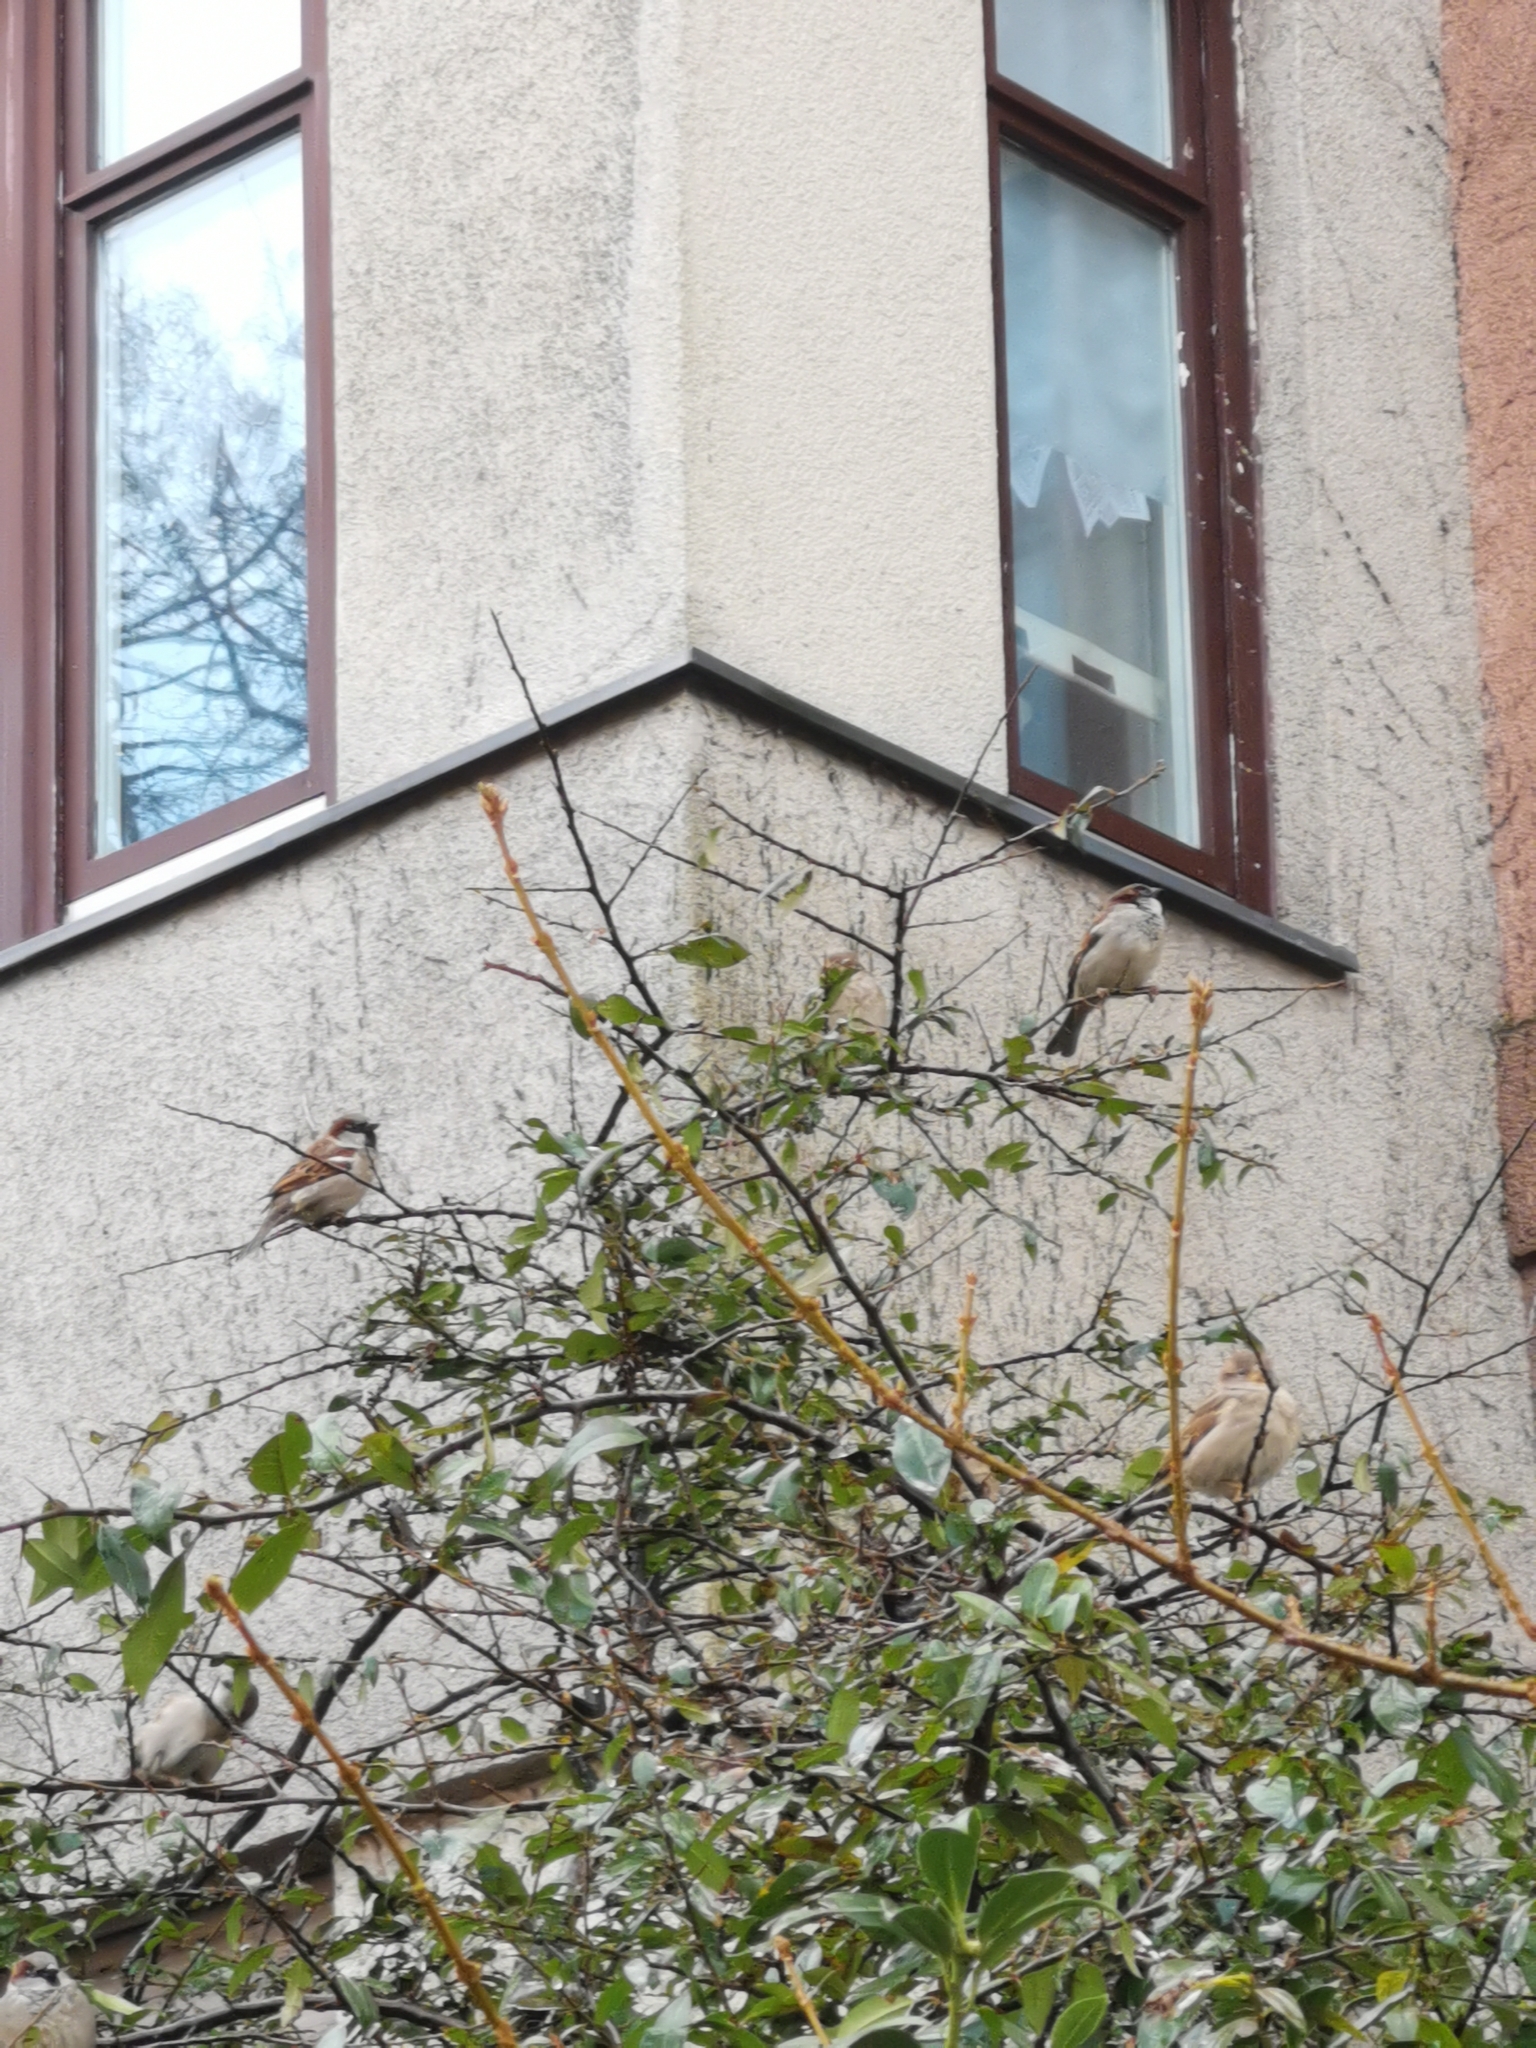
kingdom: Animalia
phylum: Chordata
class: Aves
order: Passeriformes
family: Passeridae
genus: Passer
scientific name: Passer domesticus
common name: House sparrow
